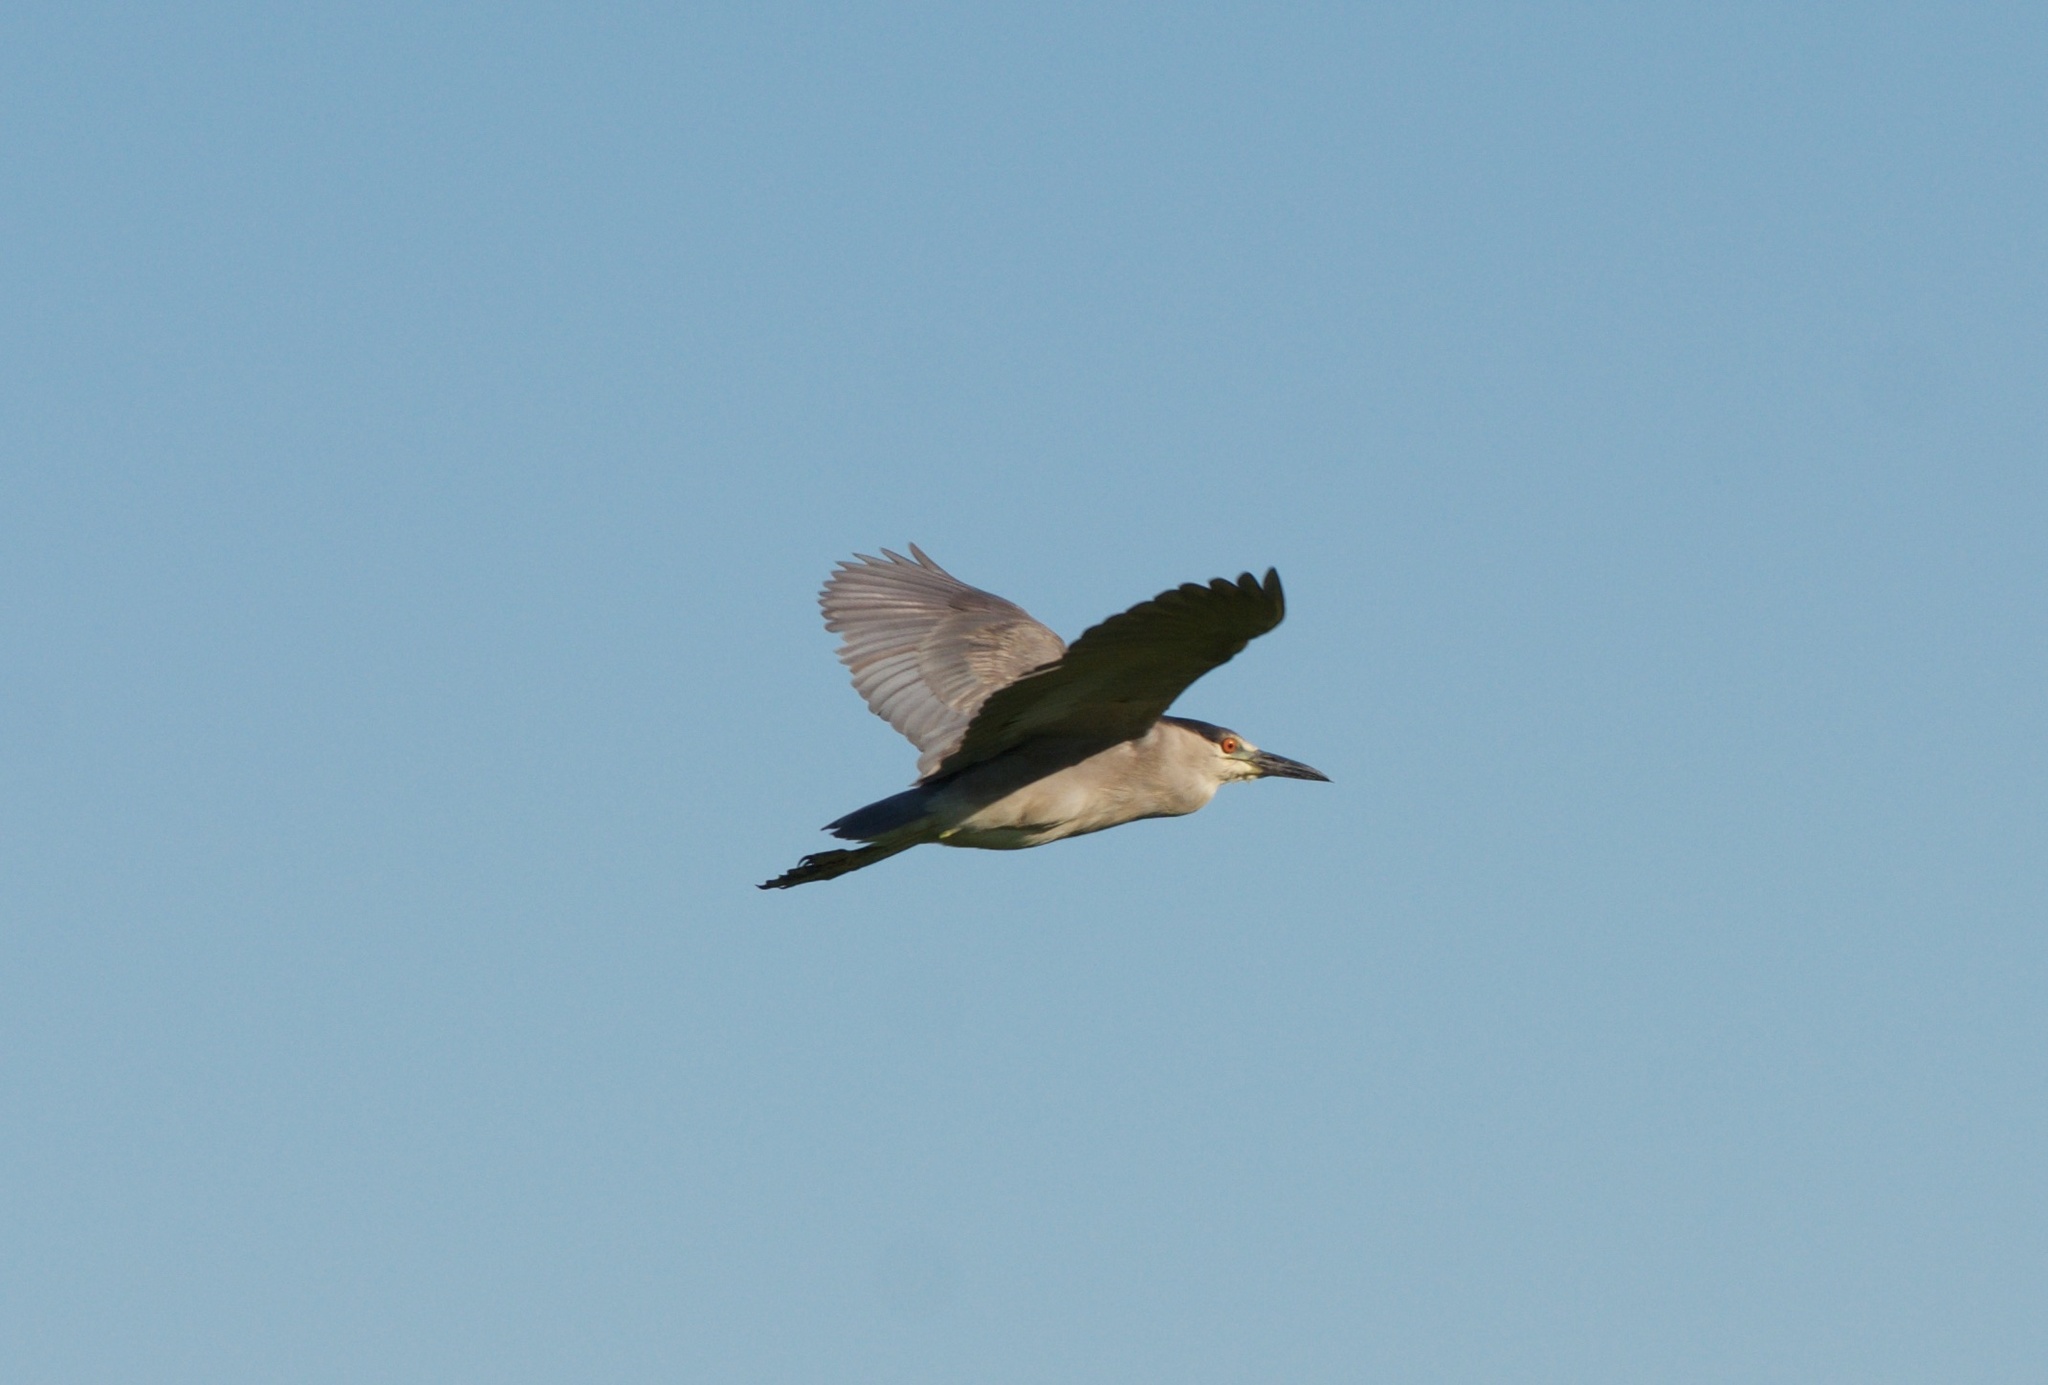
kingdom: Animalia
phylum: Chordata
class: Aves
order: Pelecaniformes
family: Ardeidae
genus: Nycticorax
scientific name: Nycticorax nycticorax
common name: Black-crowned night heron
